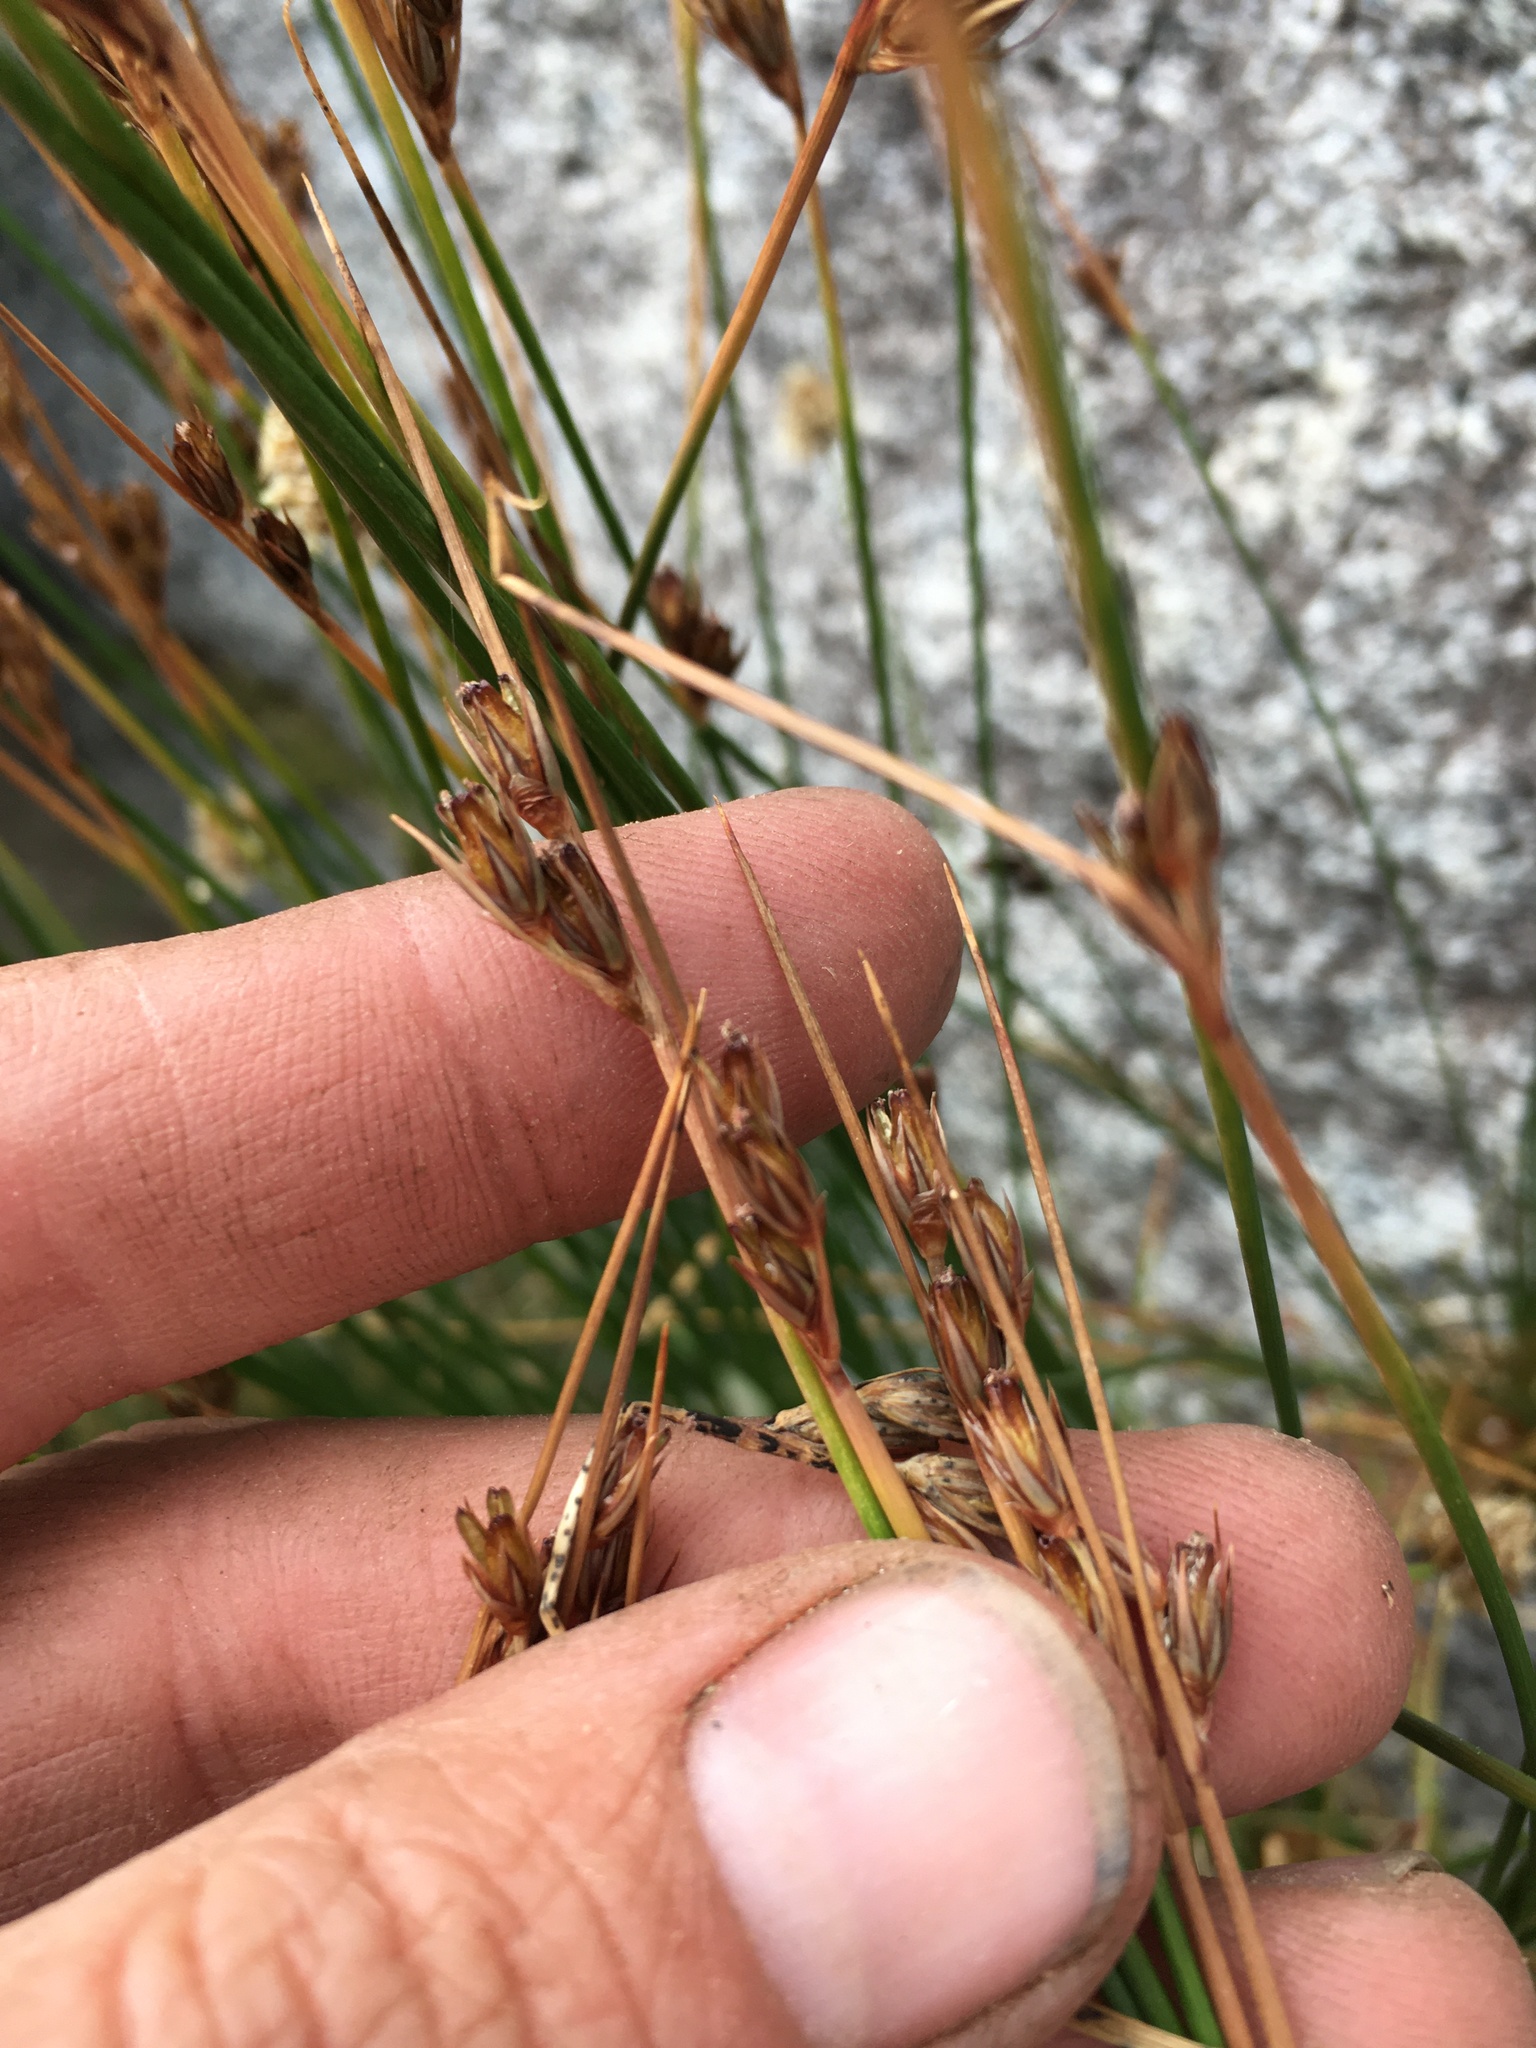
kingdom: Plantae
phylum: Tracheophyta
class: Liliopsida
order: Poales
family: Juncaceae
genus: Juncus
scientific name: Juncus drummondii
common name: Drummond's rush
